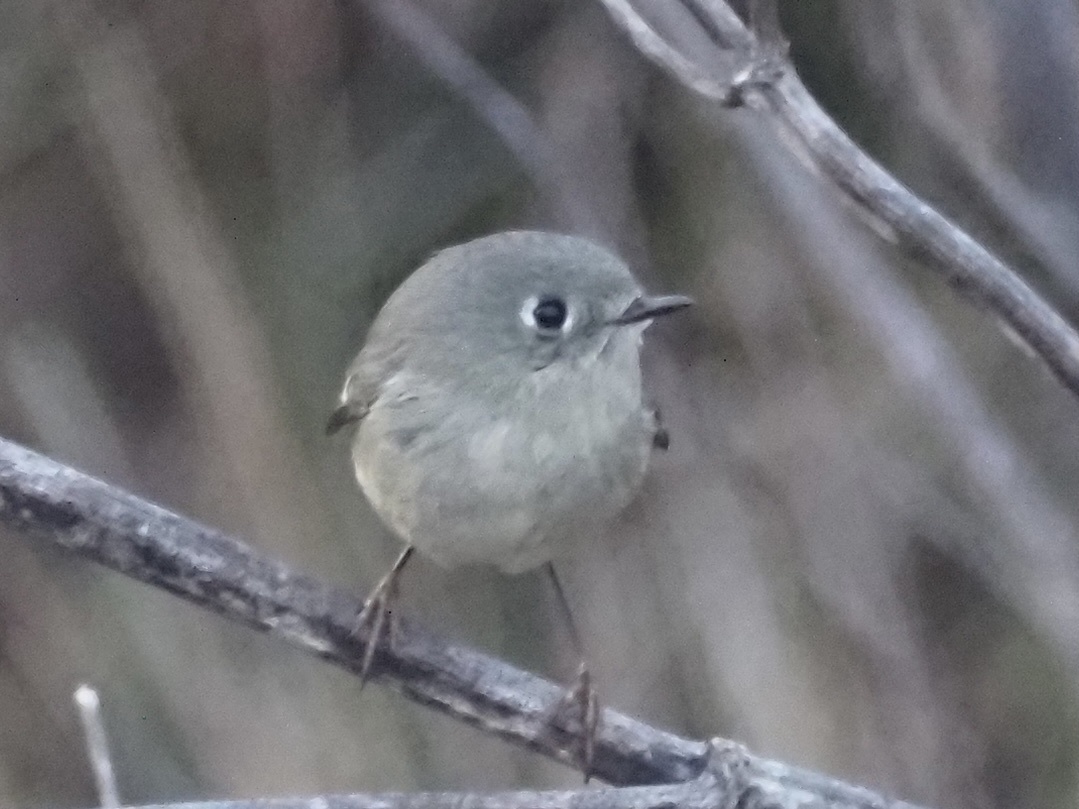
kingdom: Animalia
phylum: Chordata
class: Aves
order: Passeriformes
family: Regulidae
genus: Regulus
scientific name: Regulus calendula
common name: Ruby-crowned kinglet
